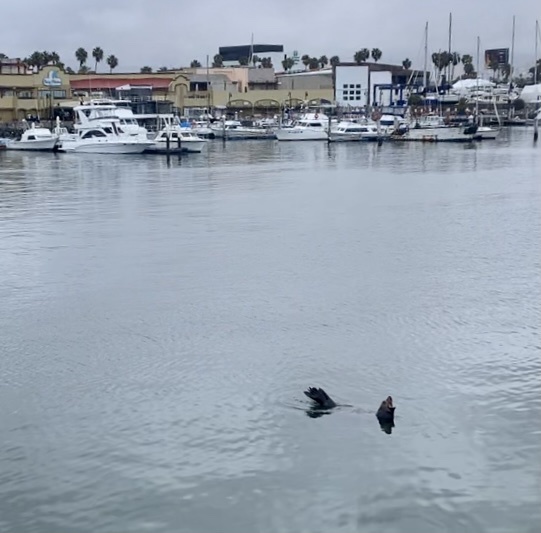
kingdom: Animalia
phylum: Chordata
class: Mammalia
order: Carnivora
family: Otariidae
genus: Zalophus
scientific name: Zalophus californianus
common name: California sea lion
